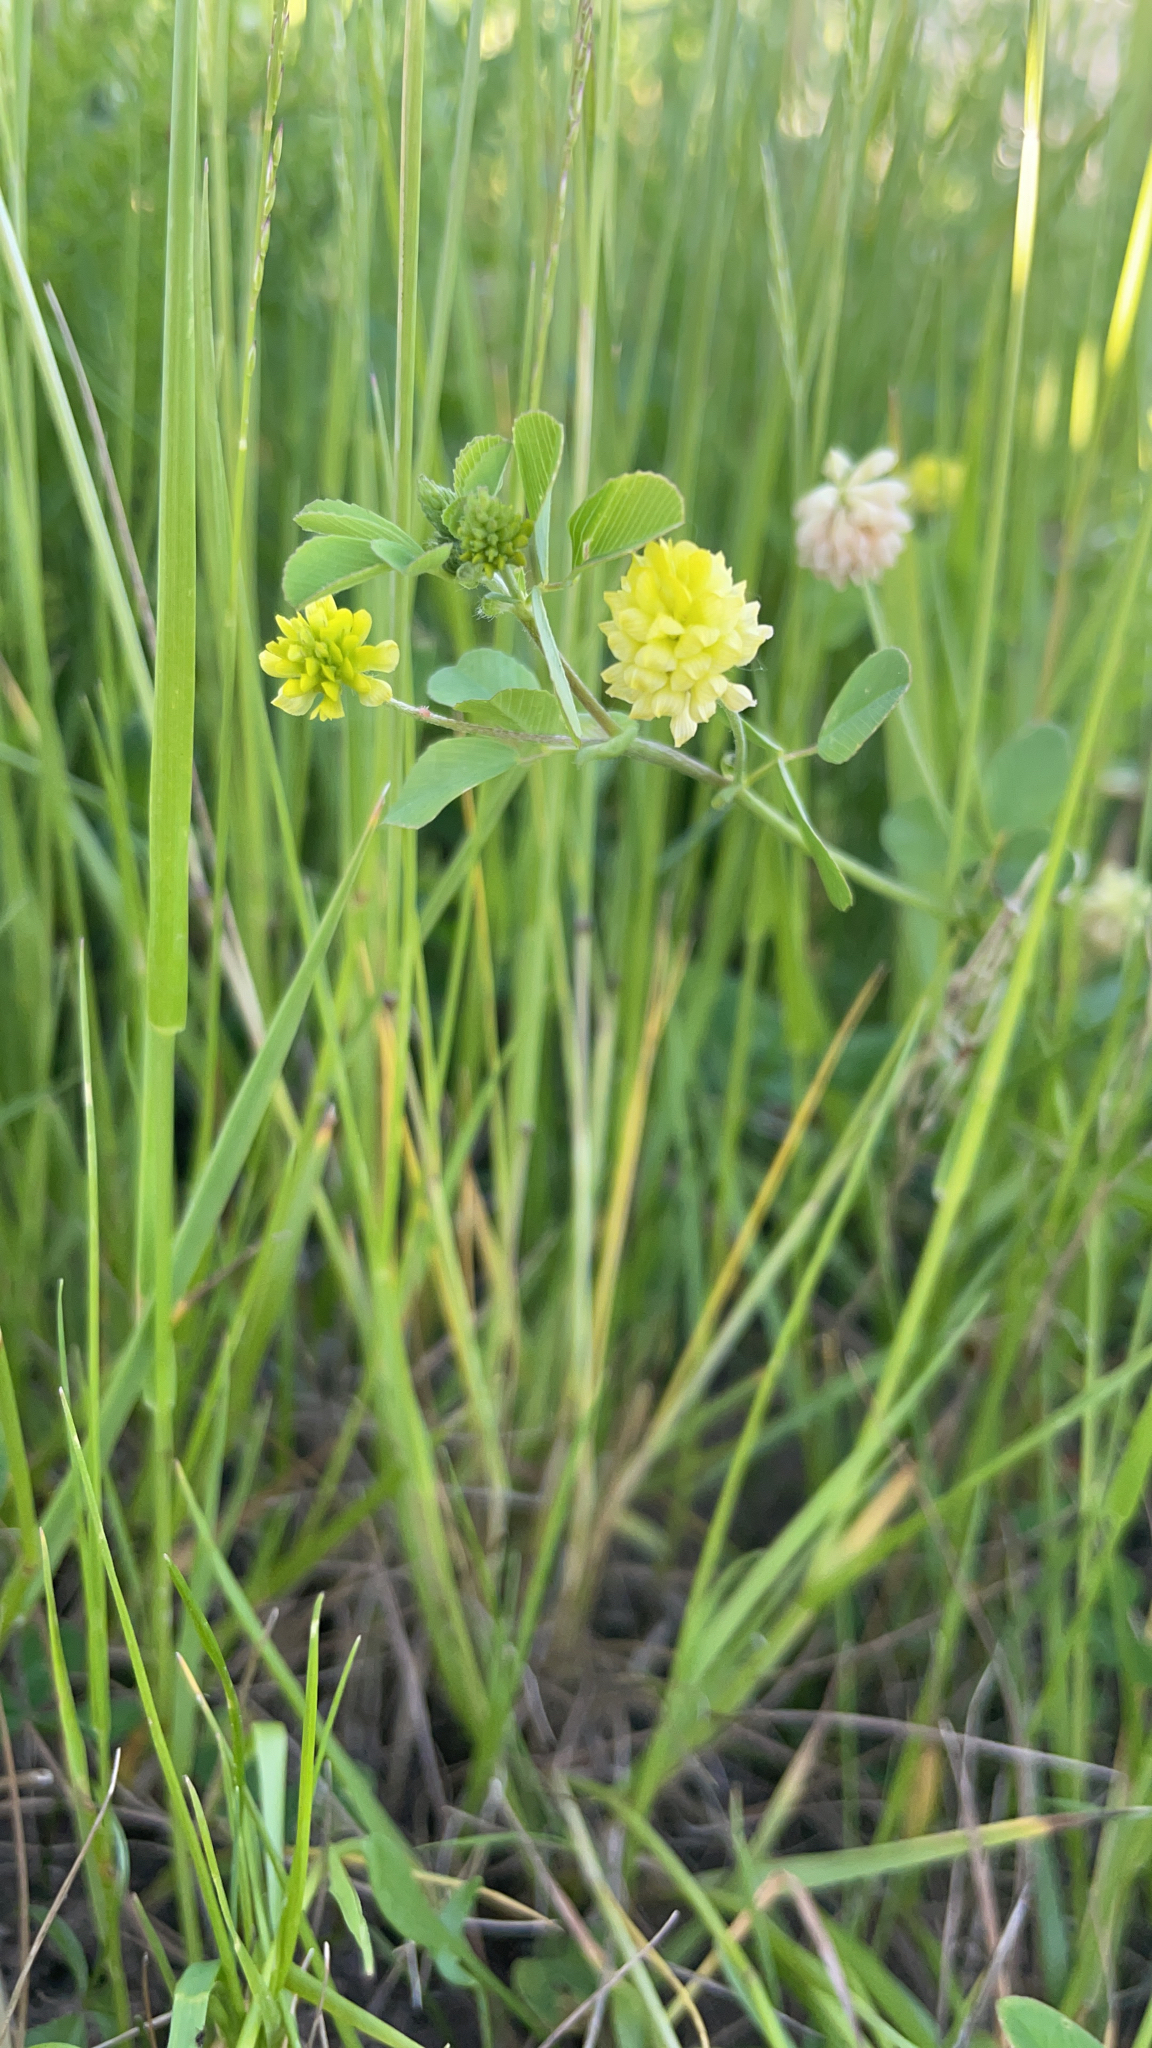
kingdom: Plantae
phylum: Tracheophyta
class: Magnoliopsida
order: Fabales
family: Fabaceae
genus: Trifolium
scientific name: Trifolium campestre
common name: Field clover
